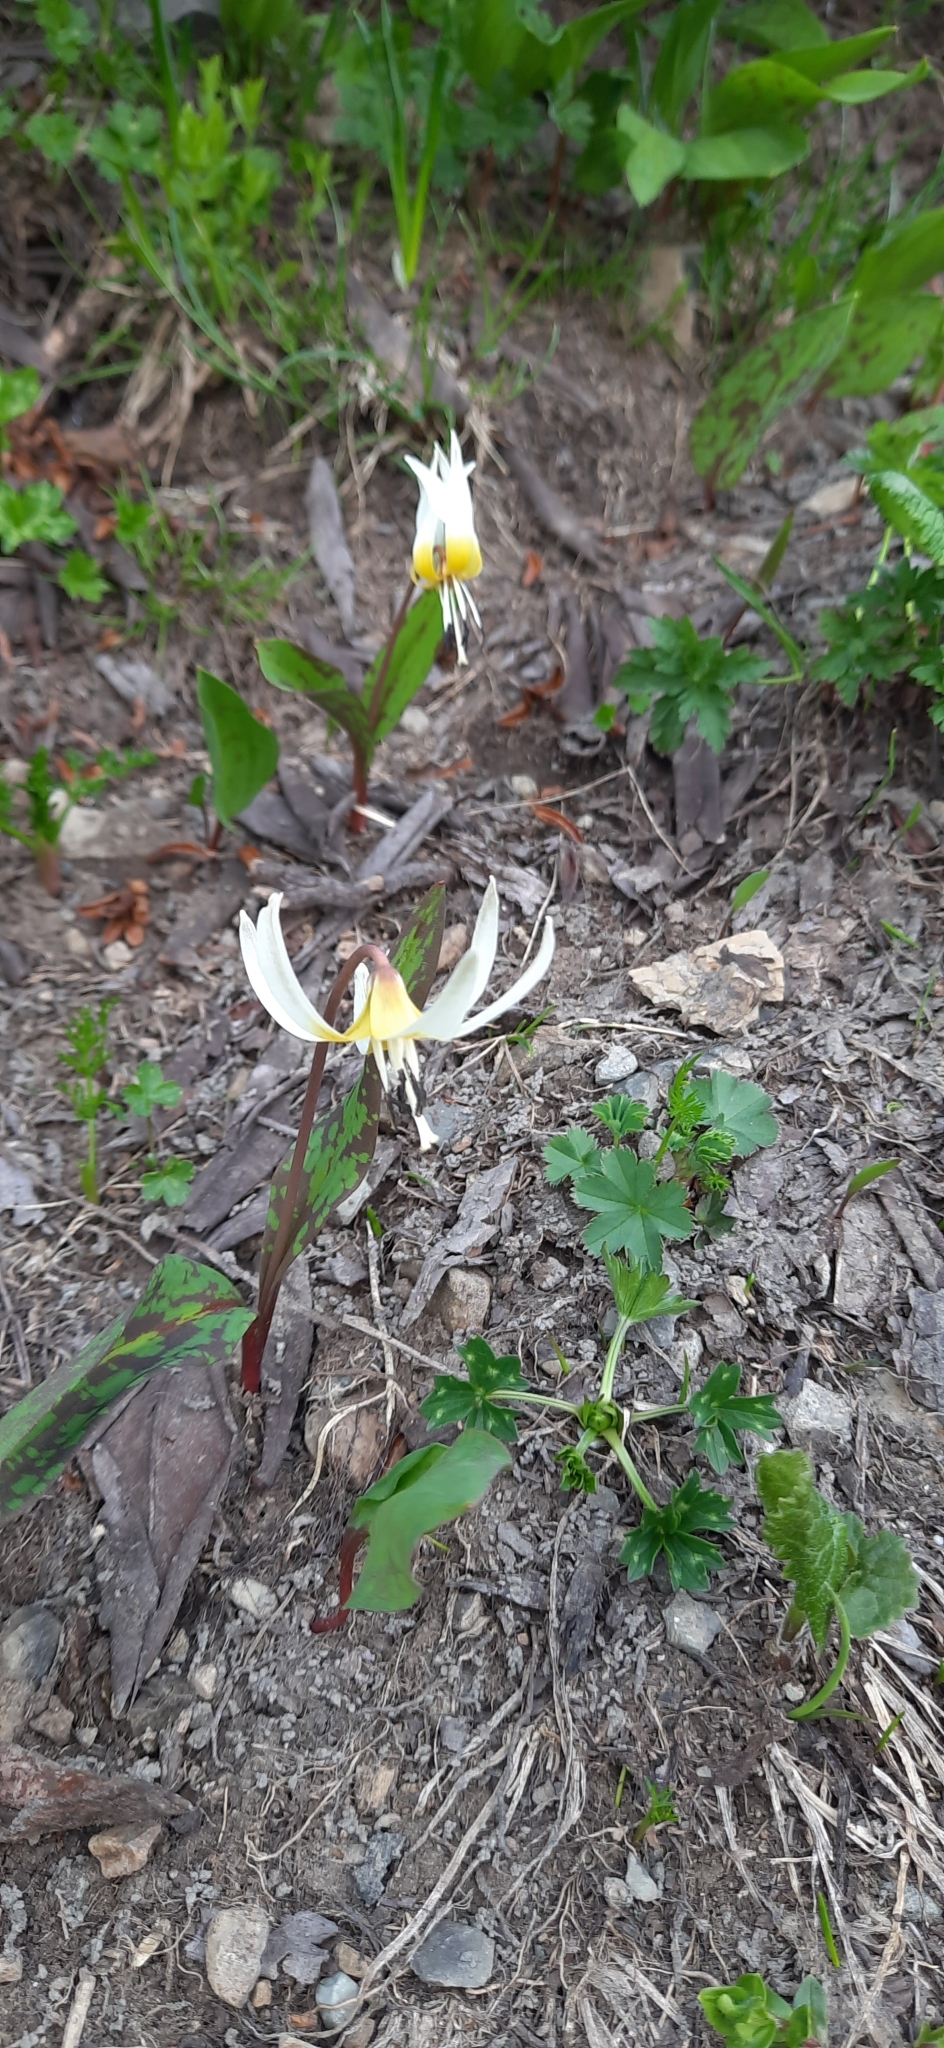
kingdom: Plantae
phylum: Tracheophyta
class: Liliopsida
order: Liliales
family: Liliaceae
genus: Erythronium
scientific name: Erythronium caucasicum
